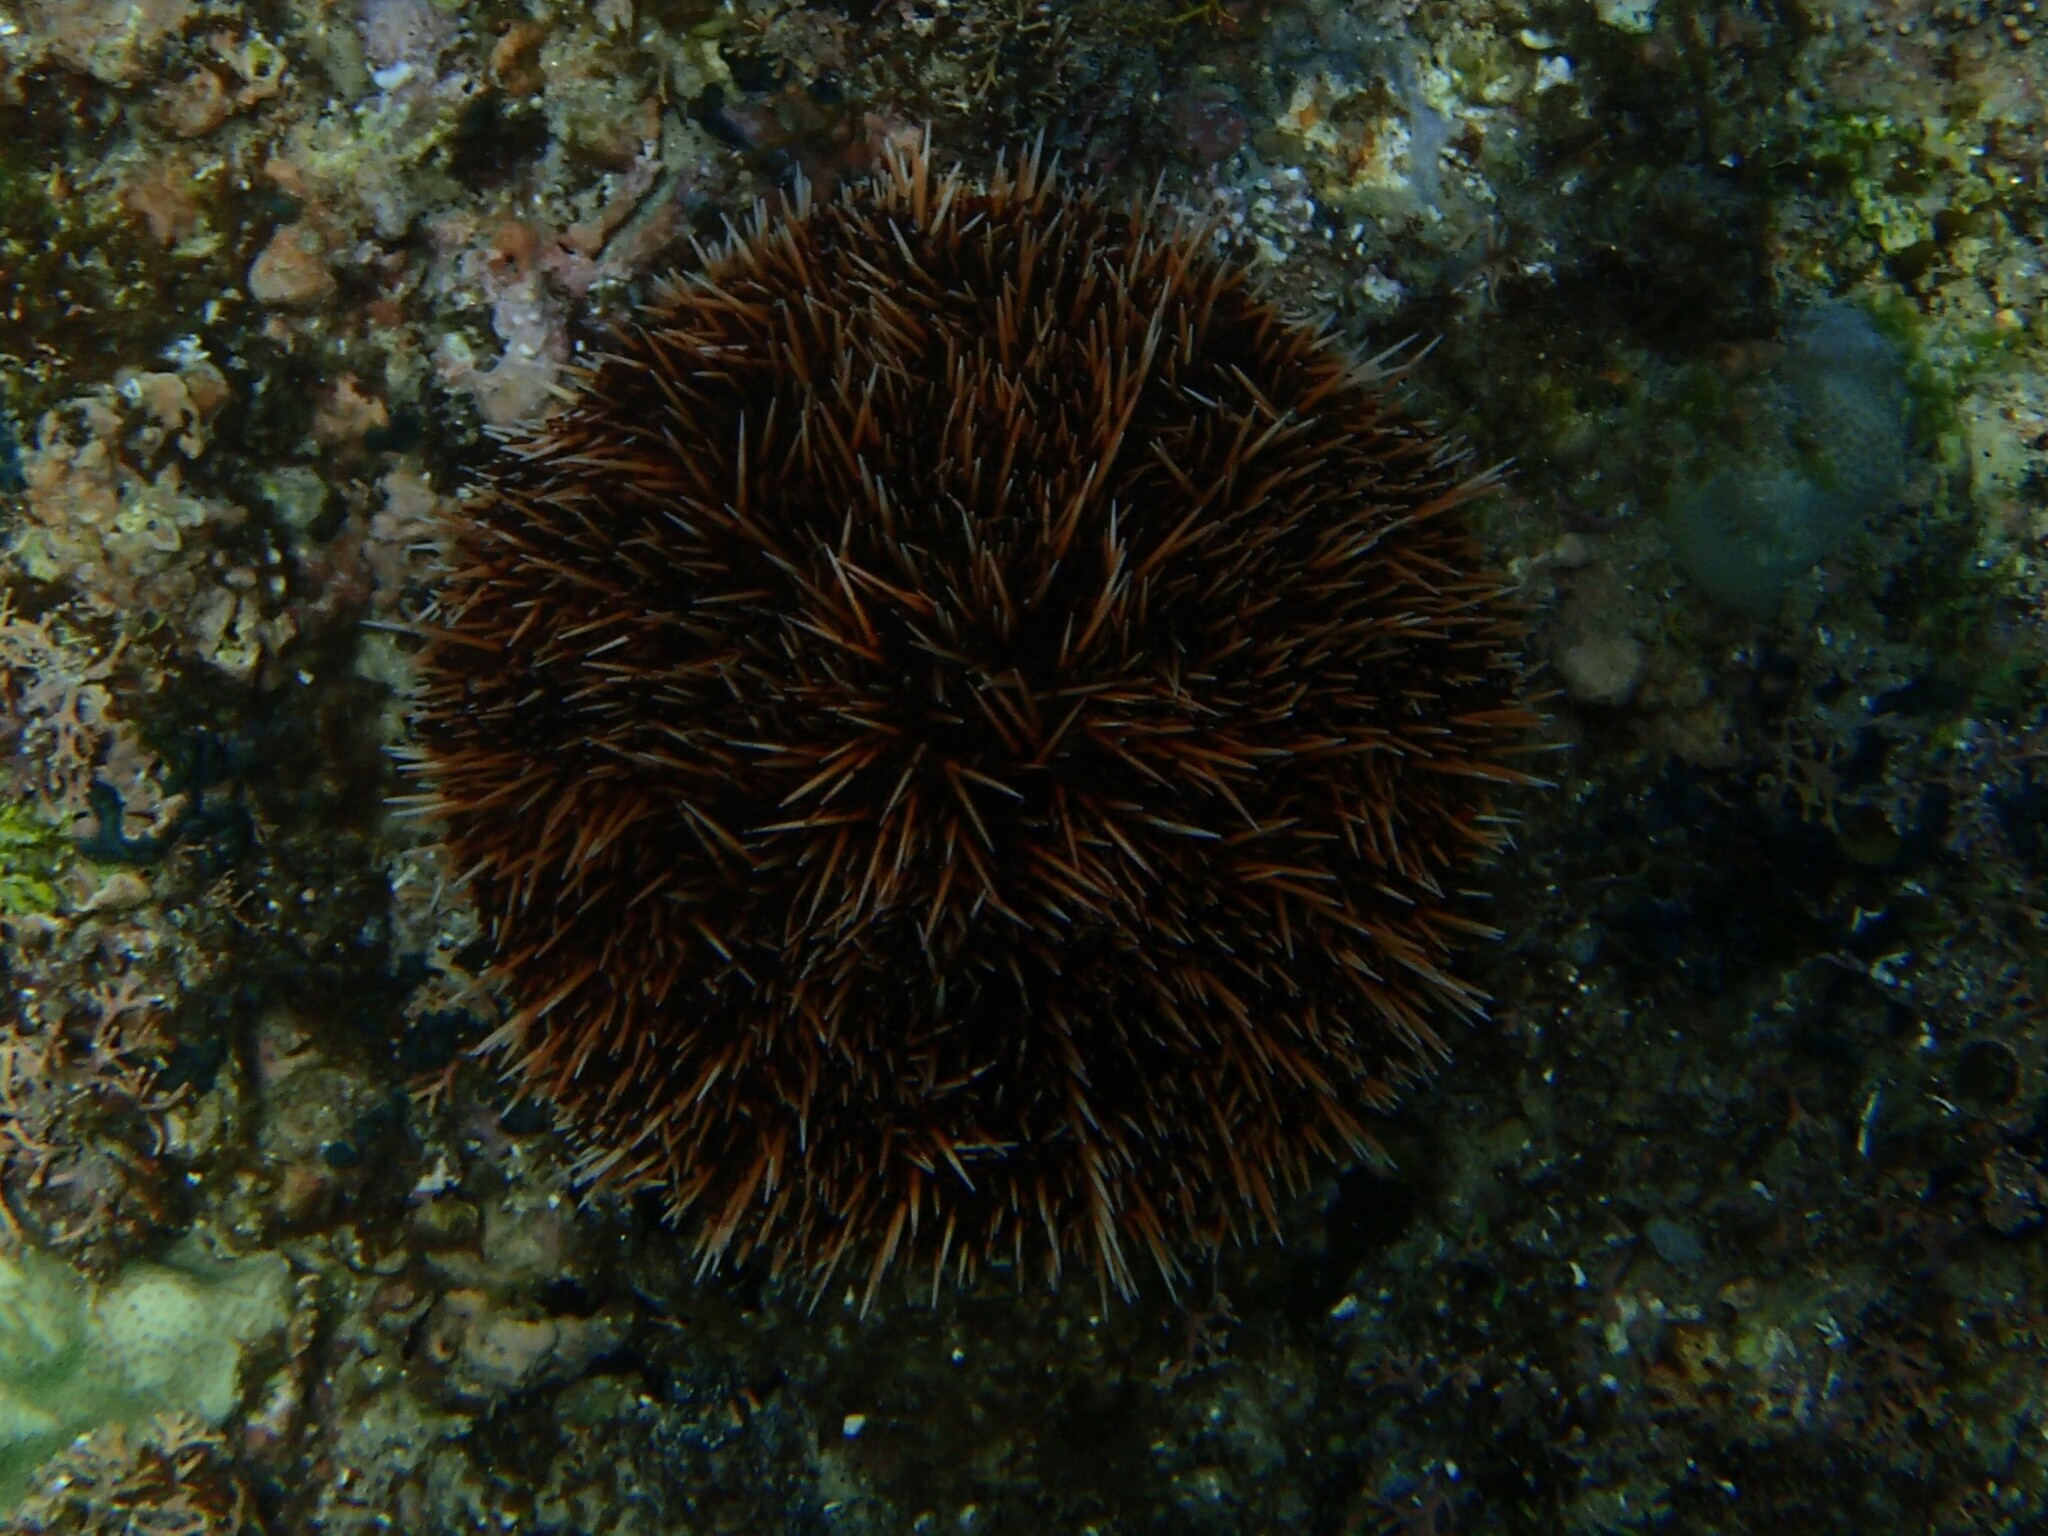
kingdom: Animalia
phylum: Echinodermata
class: Echinoidea
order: Camarodonta
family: Toxopneustidae
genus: Tripneustes
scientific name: Tripneustes depressus
